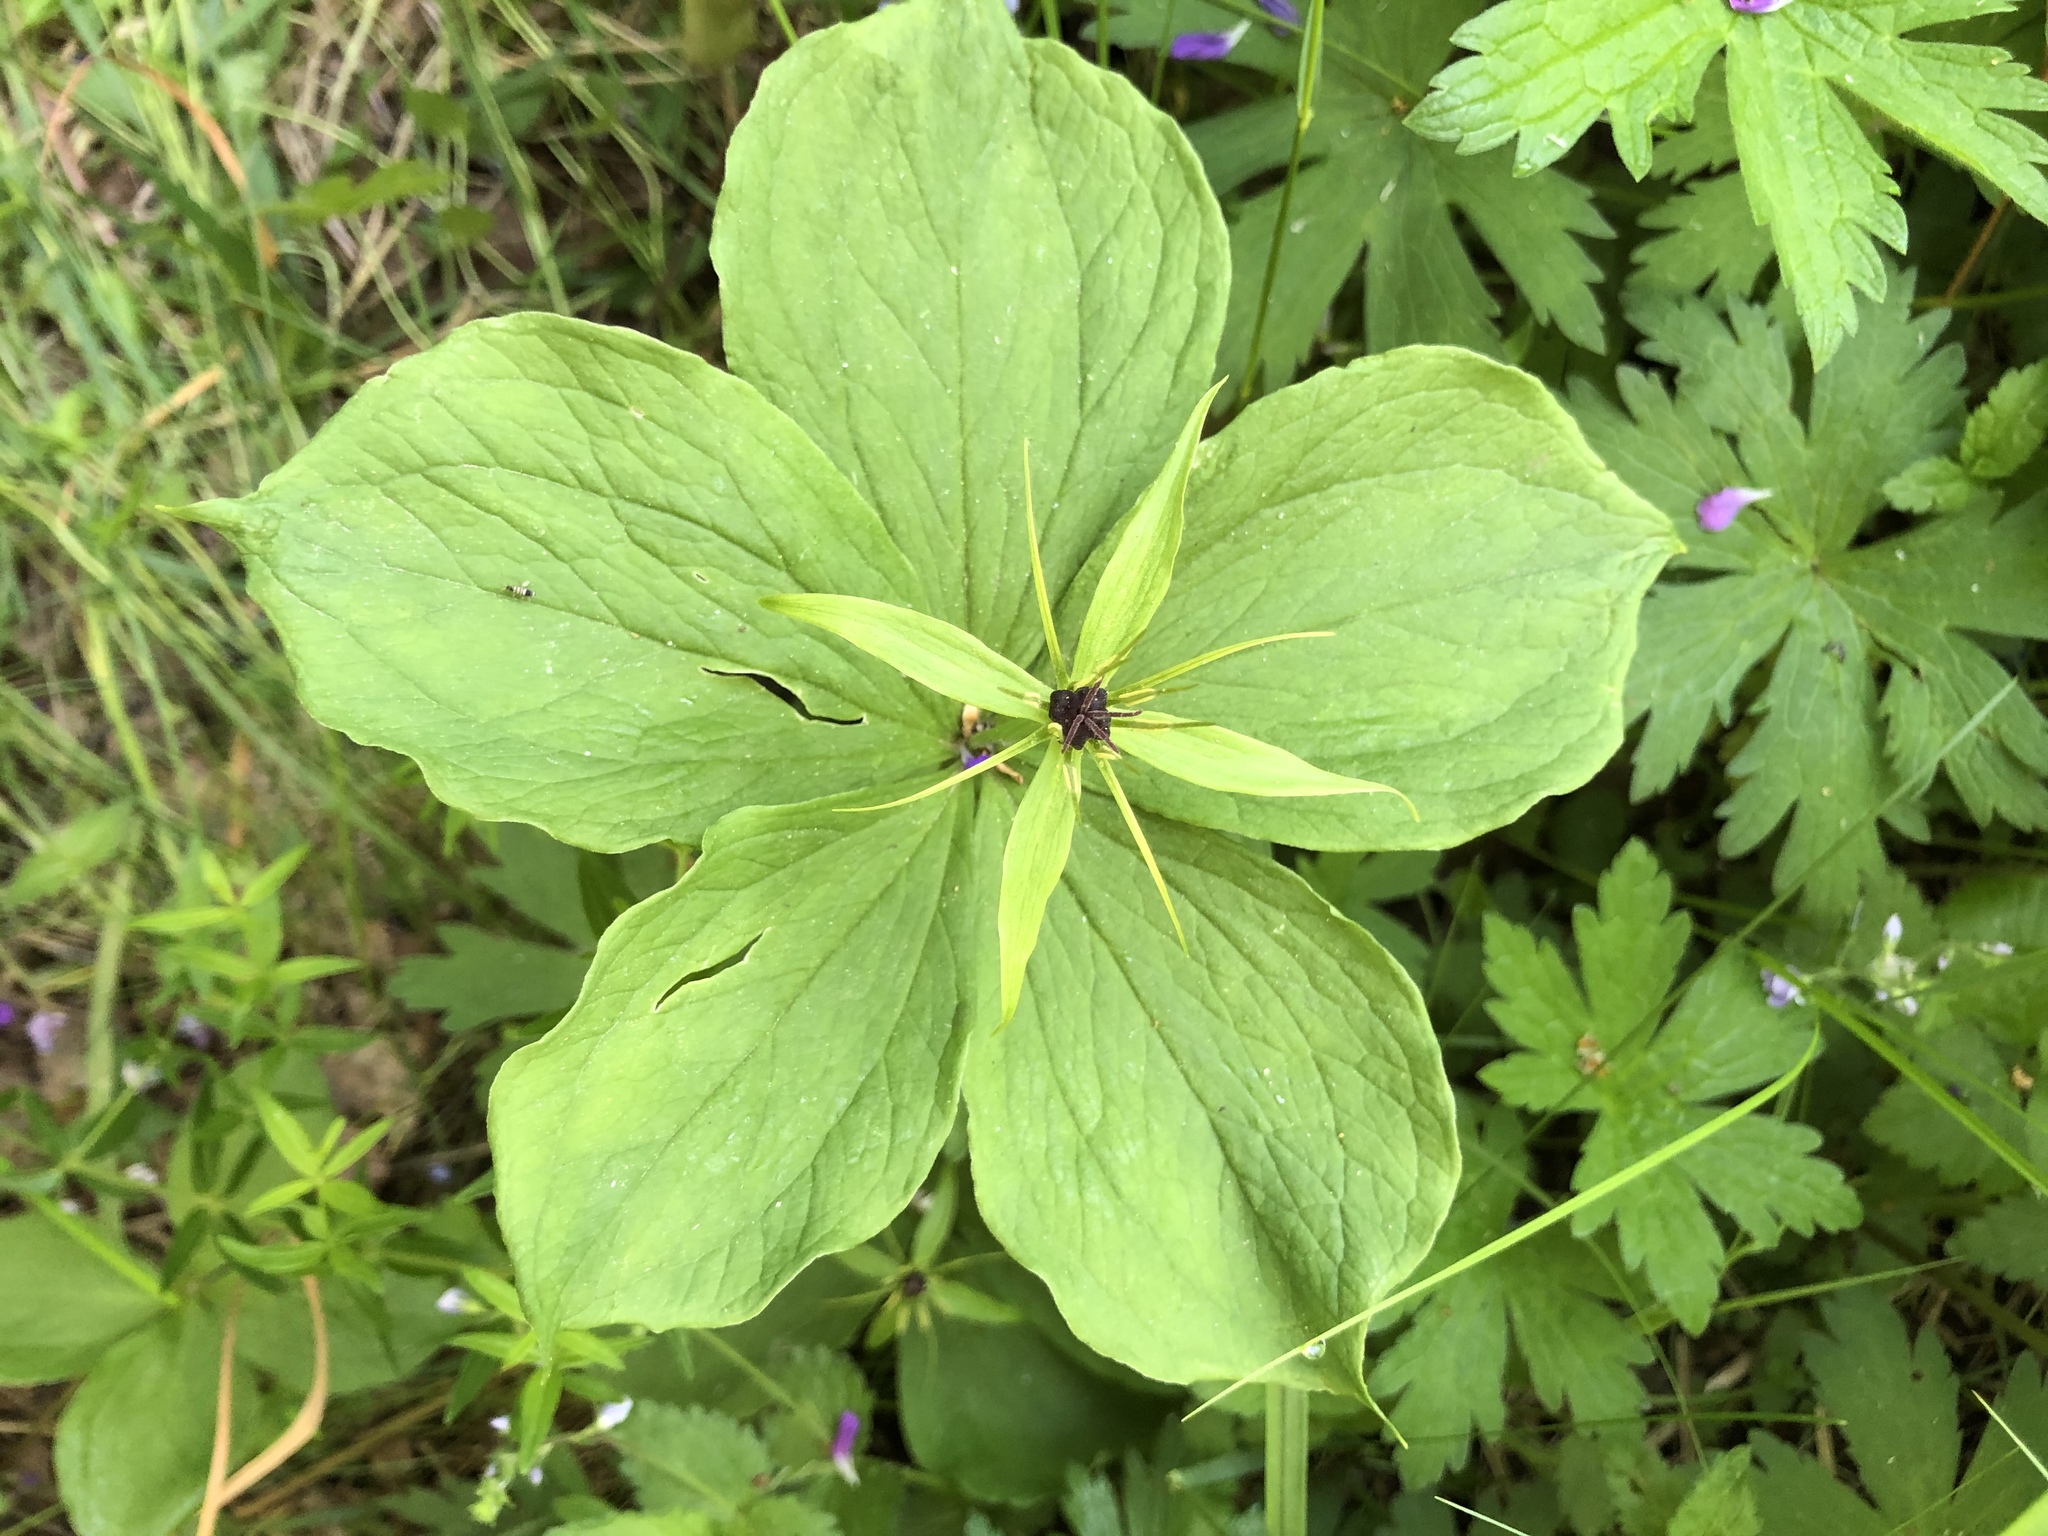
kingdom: Plantae
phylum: Tracheophyta
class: Liliopsida
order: Liliales
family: Melanthiaceae
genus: Paris
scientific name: Paris quadrifolia
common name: Herb-paris
